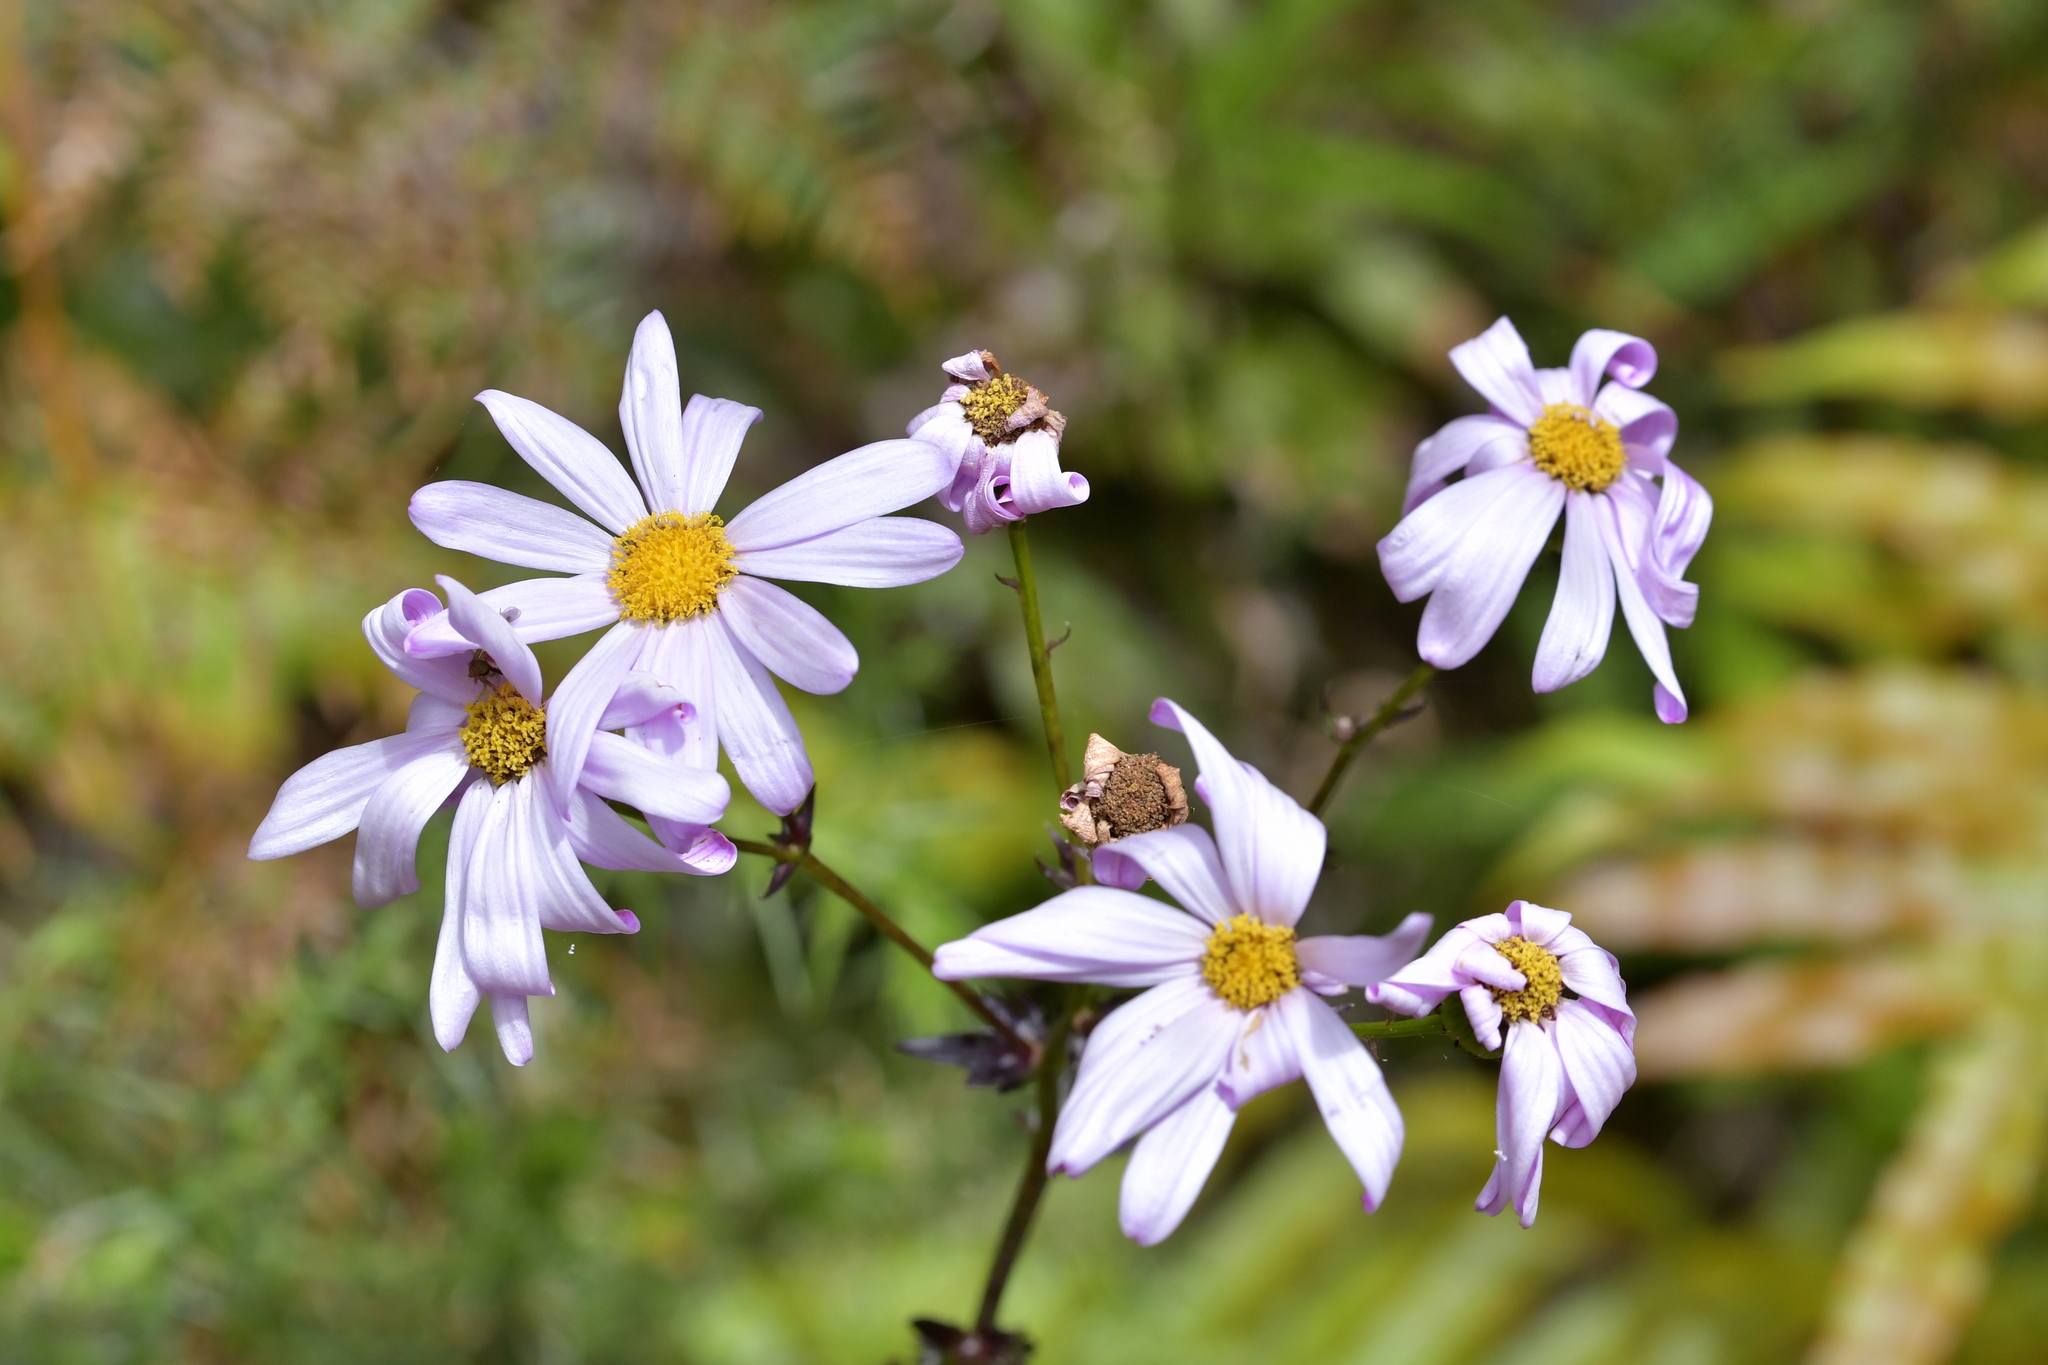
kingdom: Plantae
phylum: Tracheophyta
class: Magnoliopsida
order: Asterales
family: Asteraceae
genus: Senecio
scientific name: Senecio glastifolius
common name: Woad-leaved ragwort
